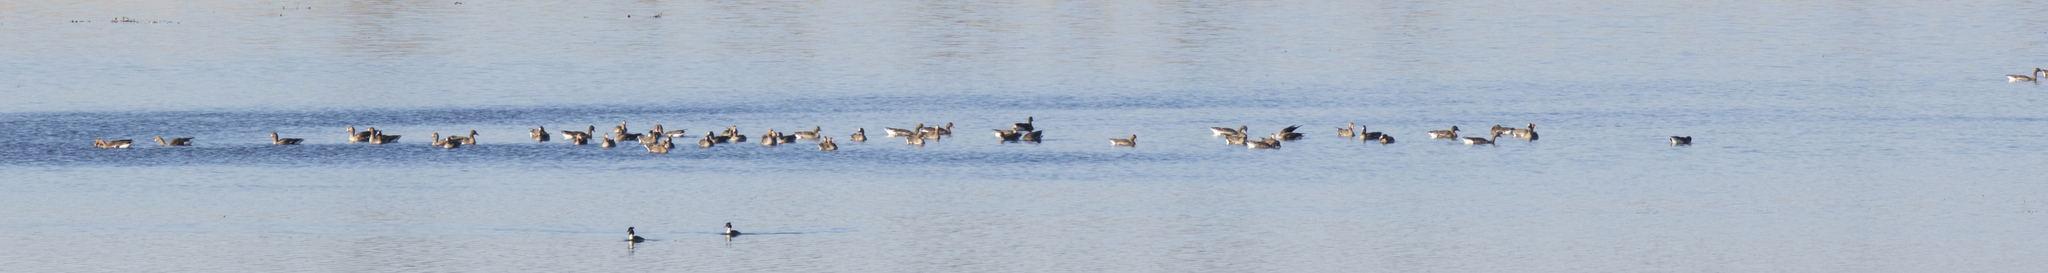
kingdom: Animalia
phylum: Chordata
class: Aves
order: Anseriformes
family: Anatidae
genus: Anser
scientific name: Anser albifrons
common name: Greater white-fronted goose
